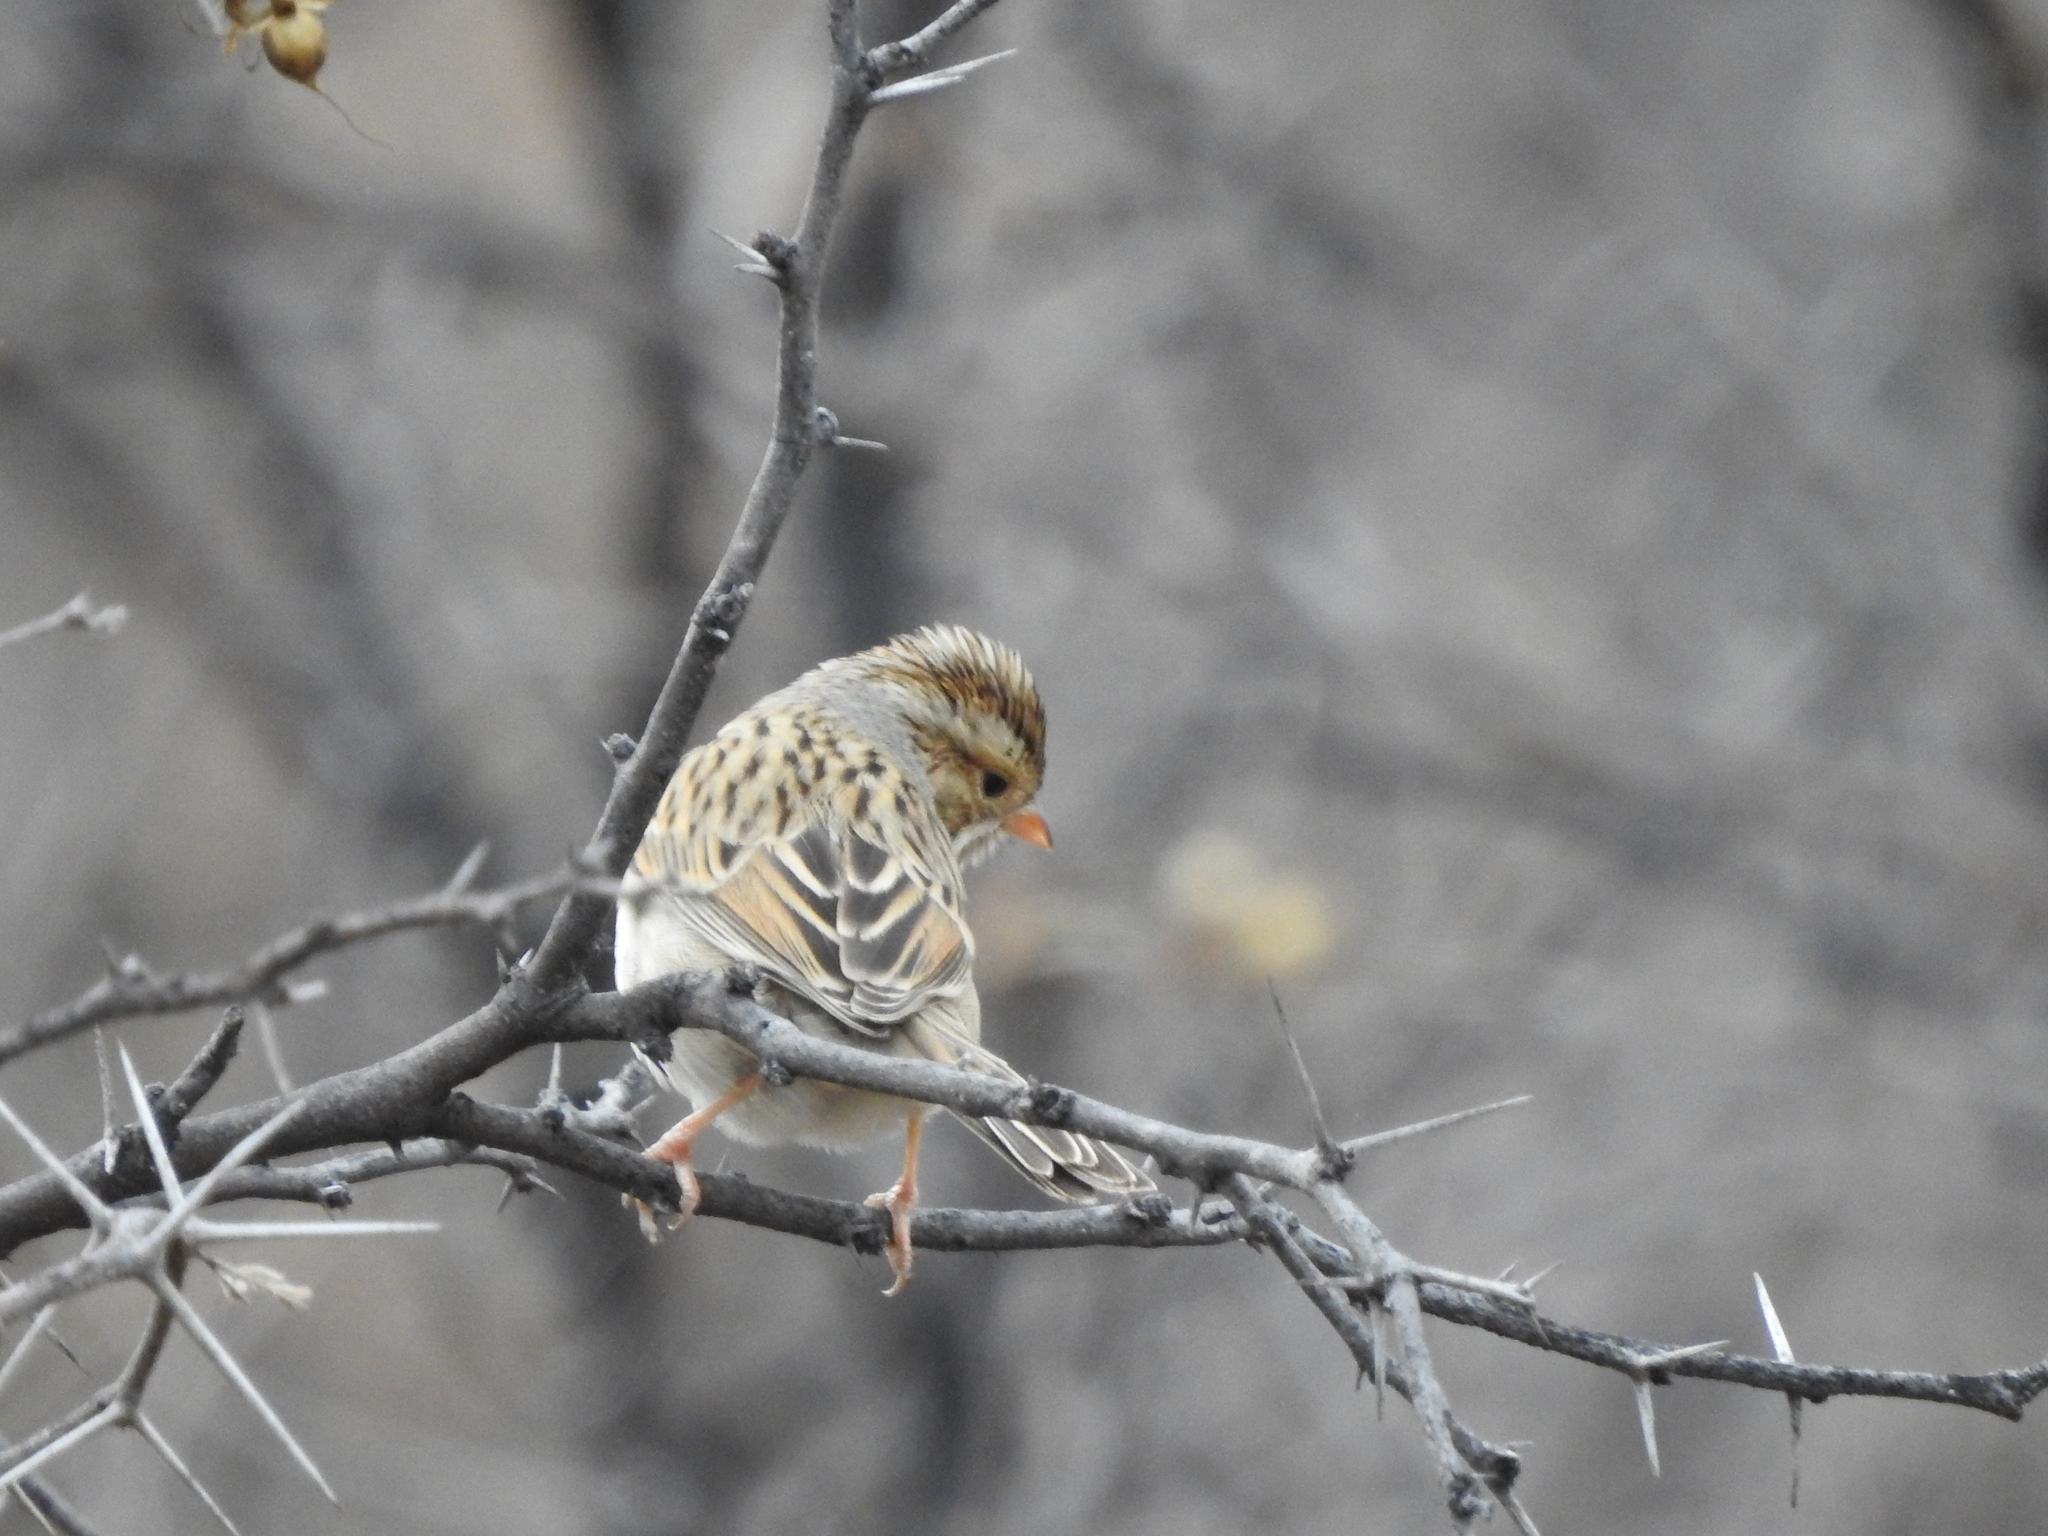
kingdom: Animalia
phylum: Chordata
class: Aves
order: Passeriformes
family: Passerellidae
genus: Spizella
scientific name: Spizella pallida
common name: Clay-colored sparrow
